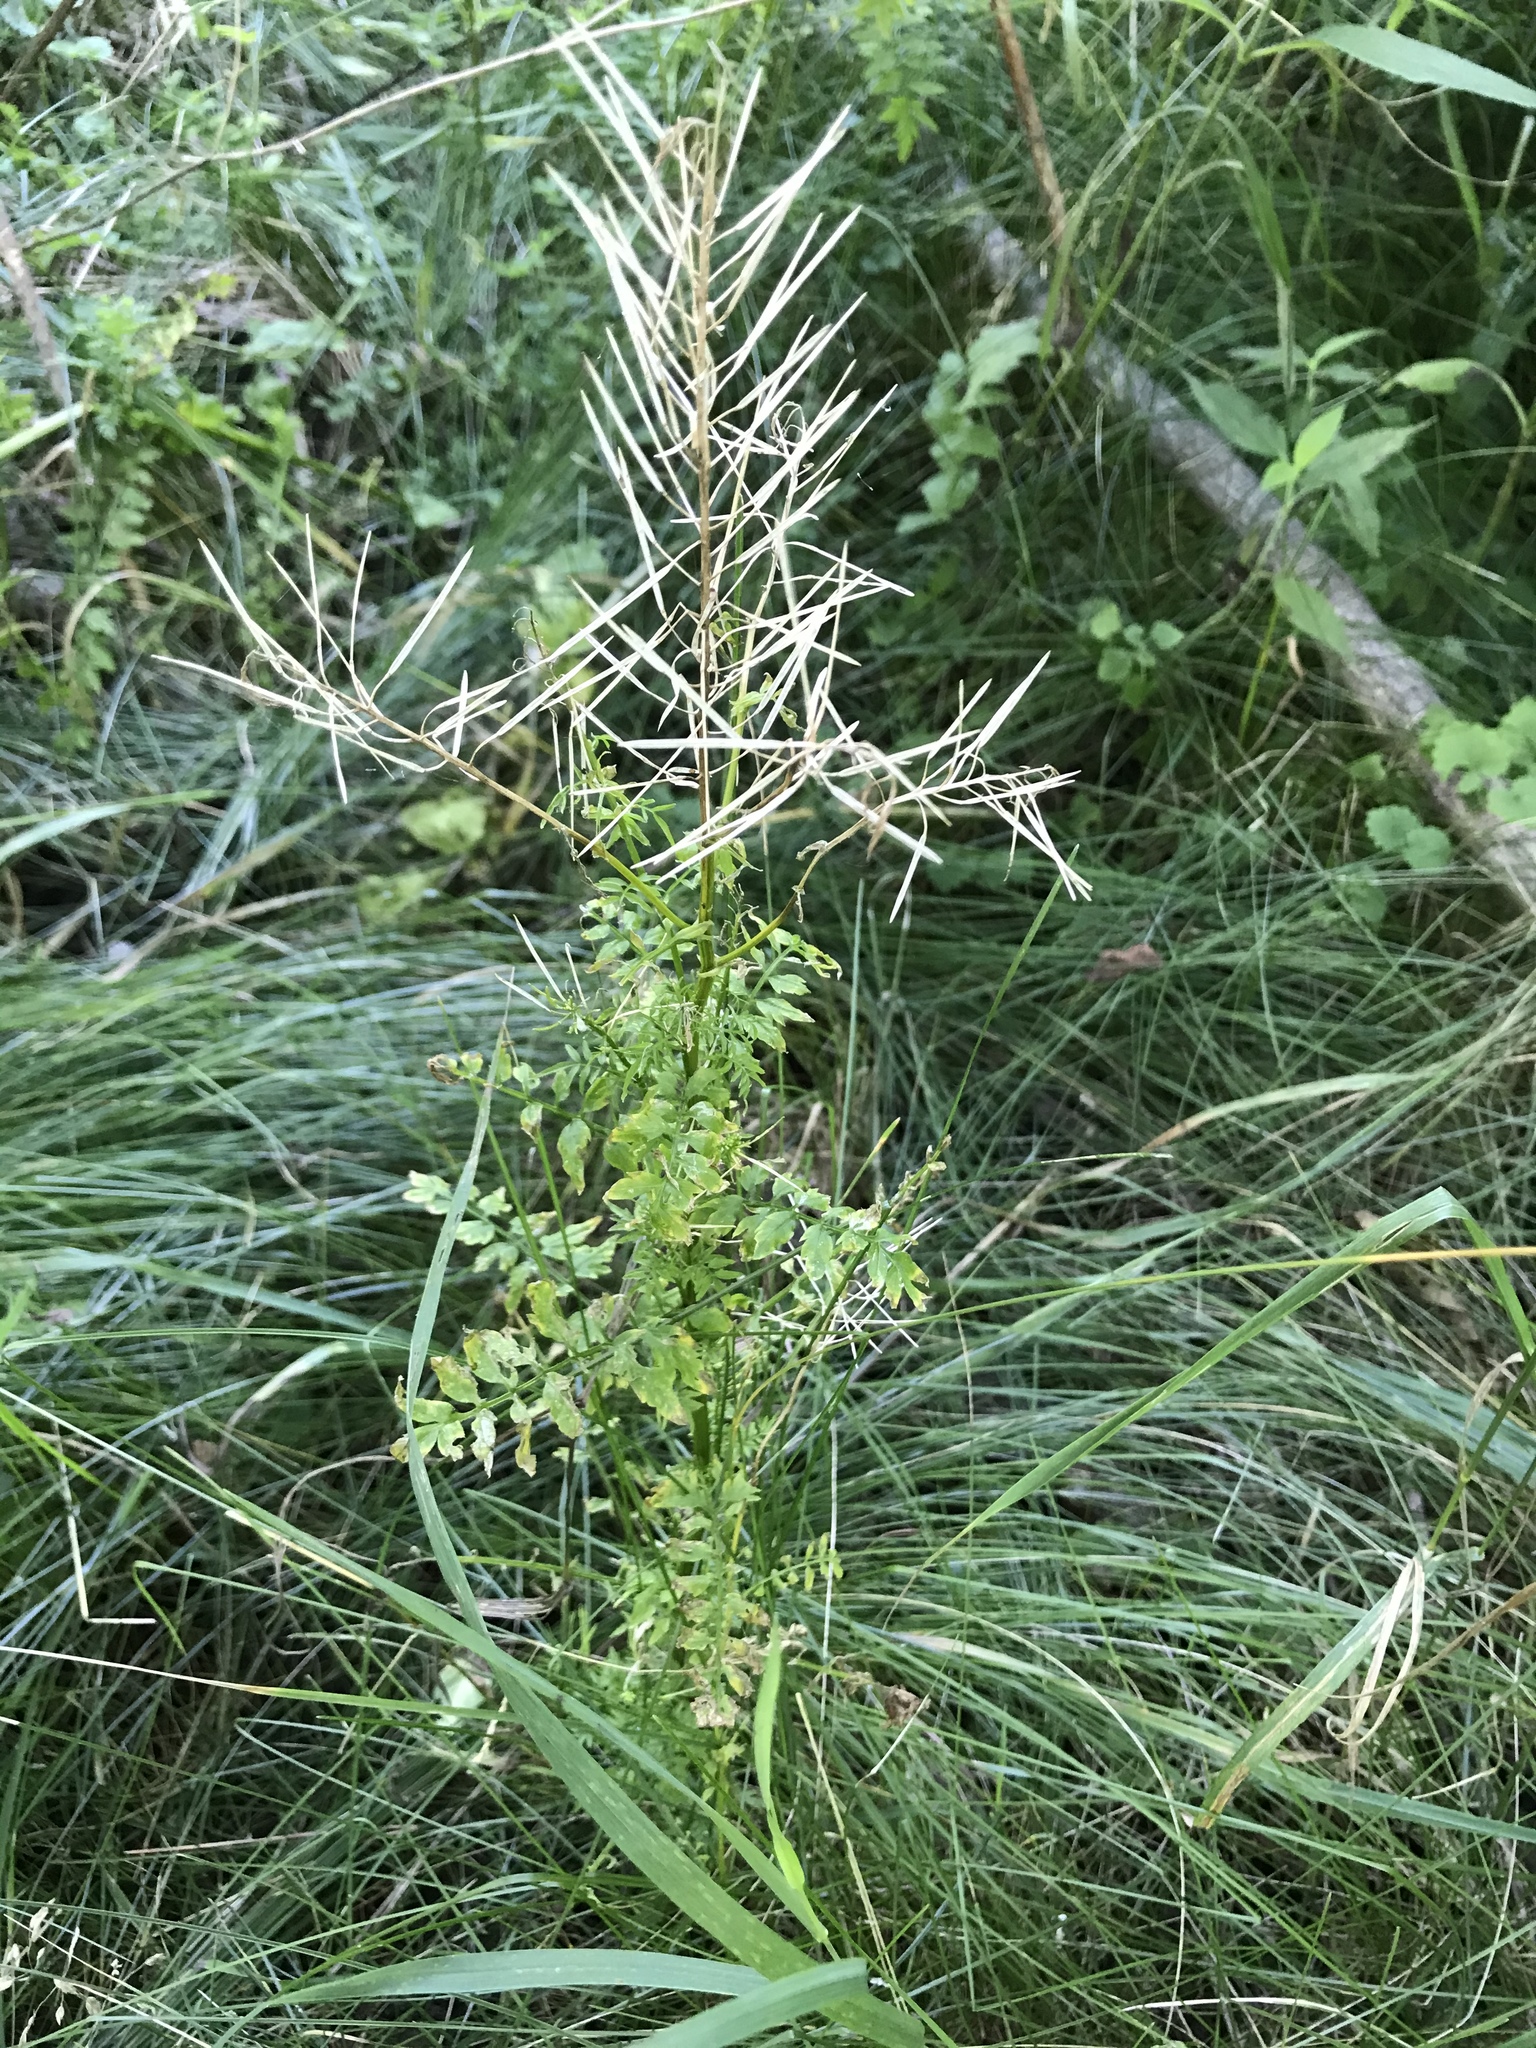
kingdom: Plantae
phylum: Tracheophyta
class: Magnoliopsida
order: Brassicales
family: Brassicaceae
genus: Cardamine
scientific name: Cardamine impatiens
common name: Narrow-leaved bitter-cress
